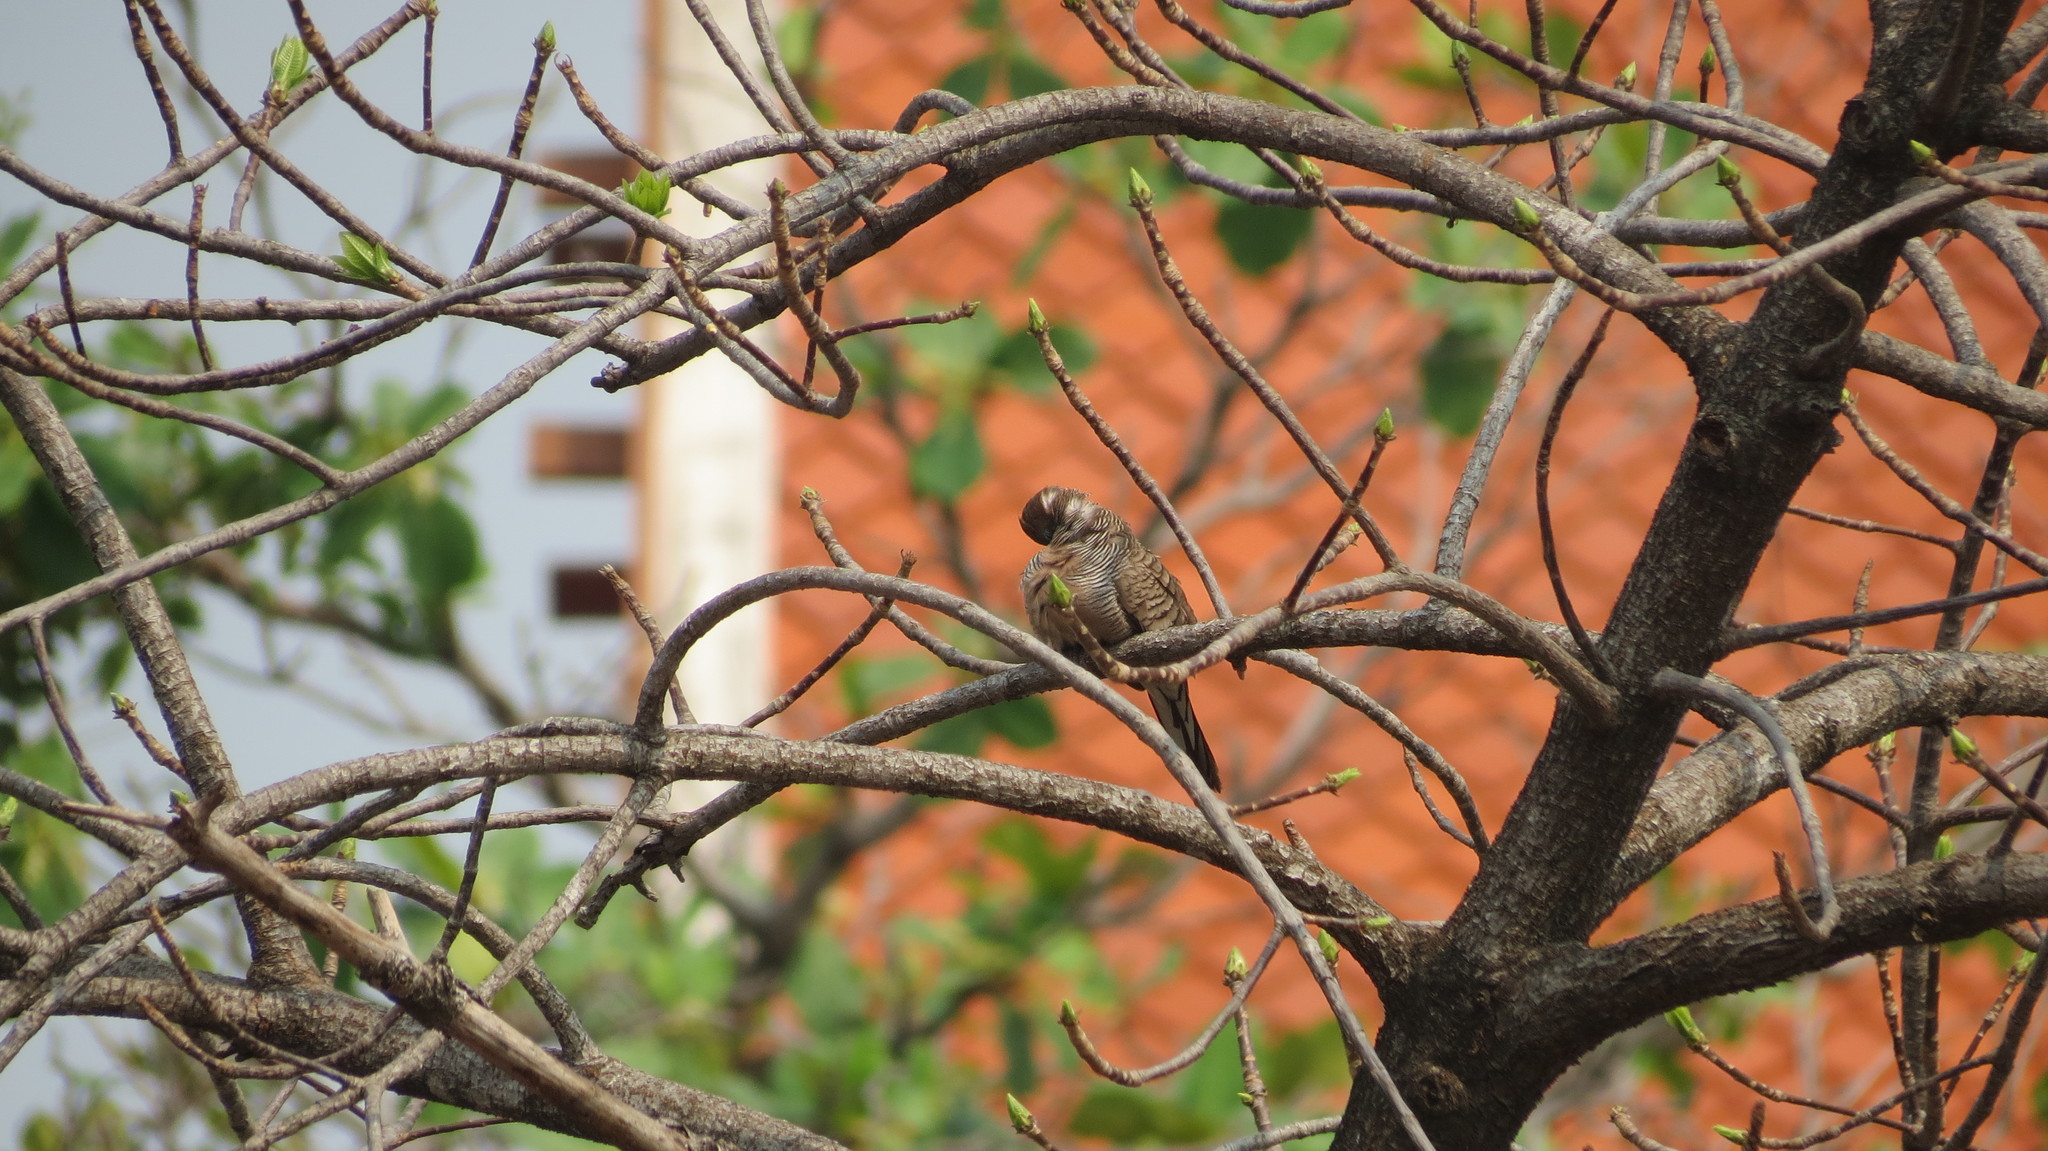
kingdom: Animalia
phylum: Chordata
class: Aves
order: Columbiformes
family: Columbidae
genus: Geopelia
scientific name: Geopelia striata
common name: Zebra dove
